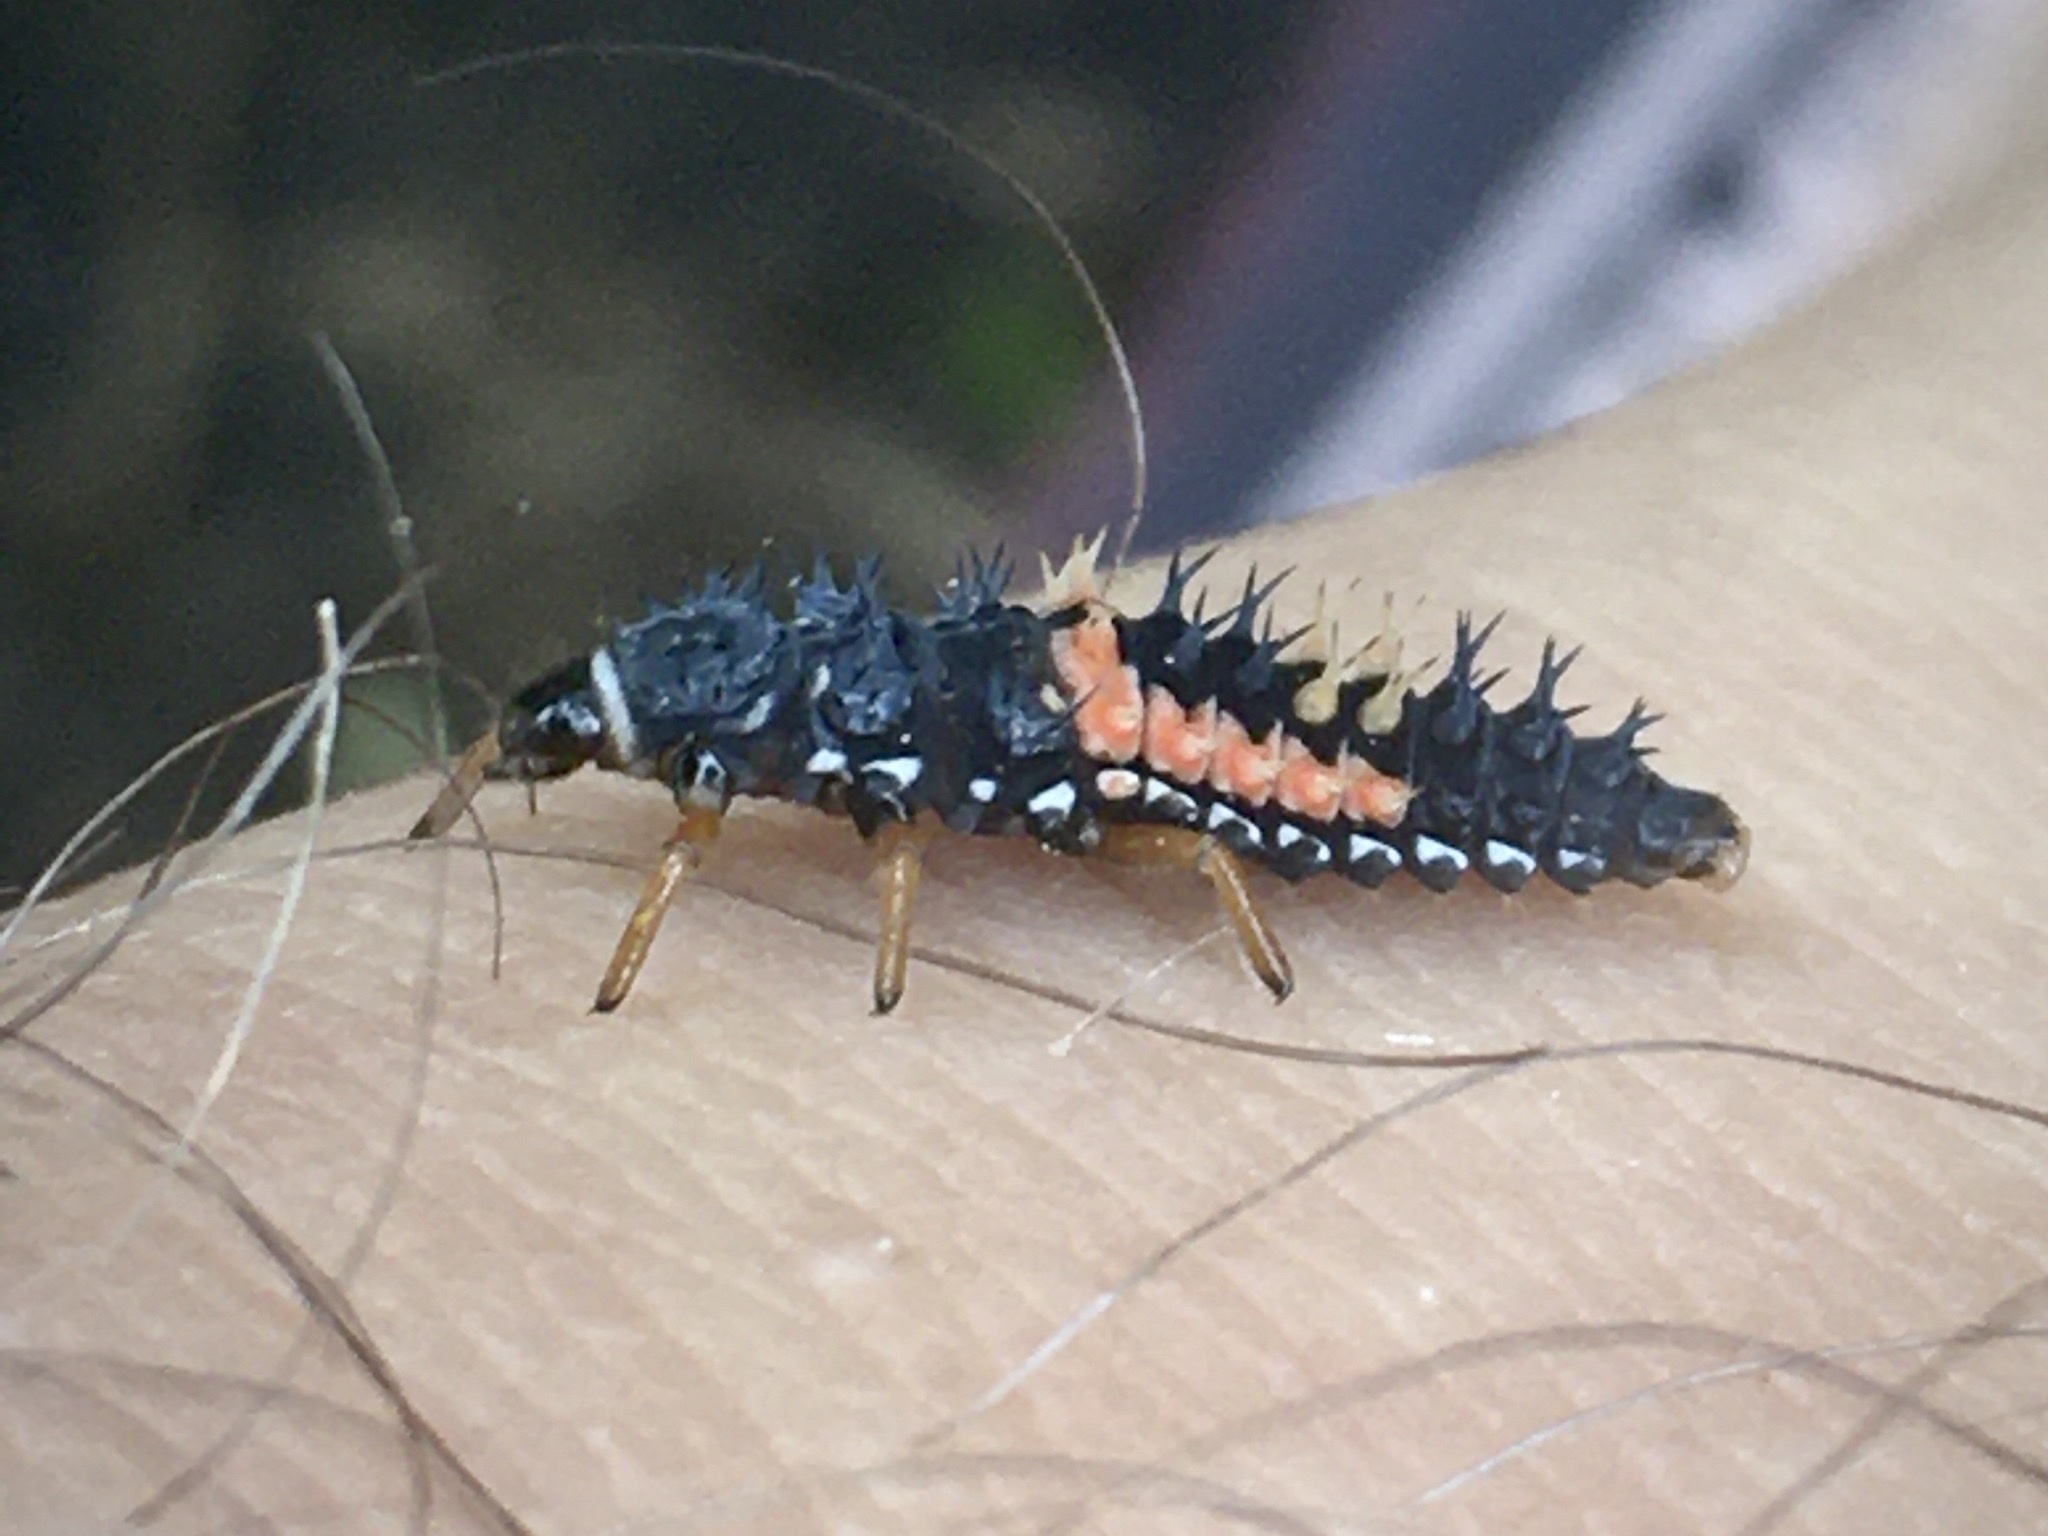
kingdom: Animalia
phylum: Arthropoda
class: Insecta
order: Coleoptera
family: Coccinellidae
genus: Harmonia
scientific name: Harmonia axyridis
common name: Harlequin ladybird
